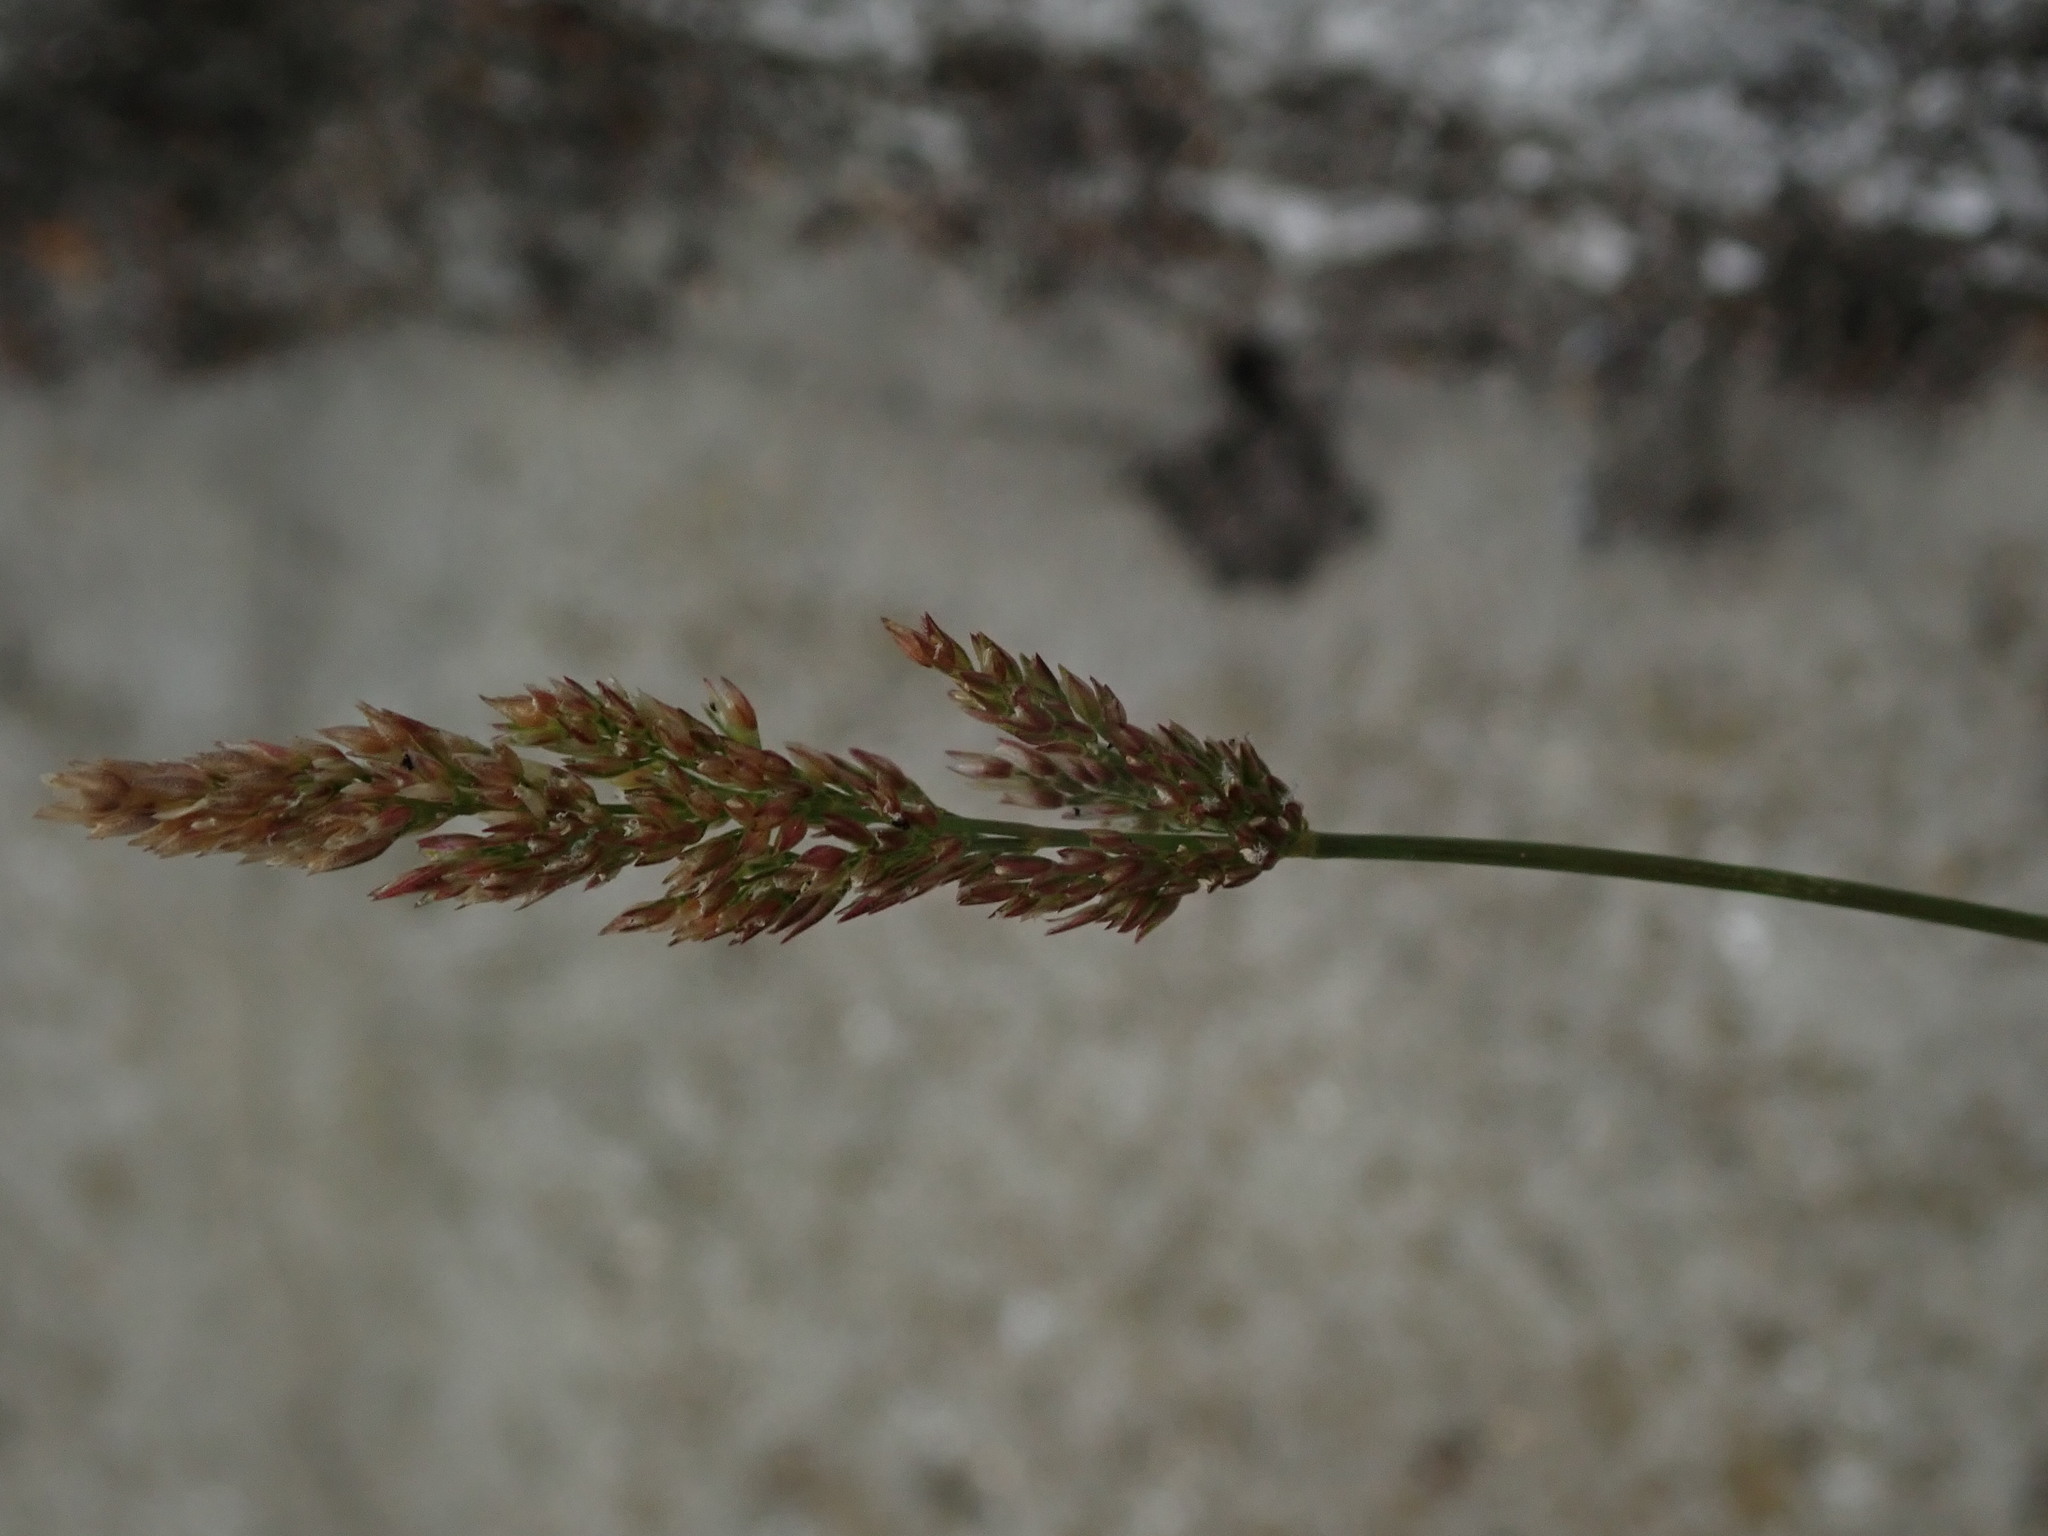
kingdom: Plantae
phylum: Tracheophyta
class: Liliopsida
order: Poales
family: Poaceae
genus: Polypogon
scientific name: Polypogon viridis
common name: Water bent
